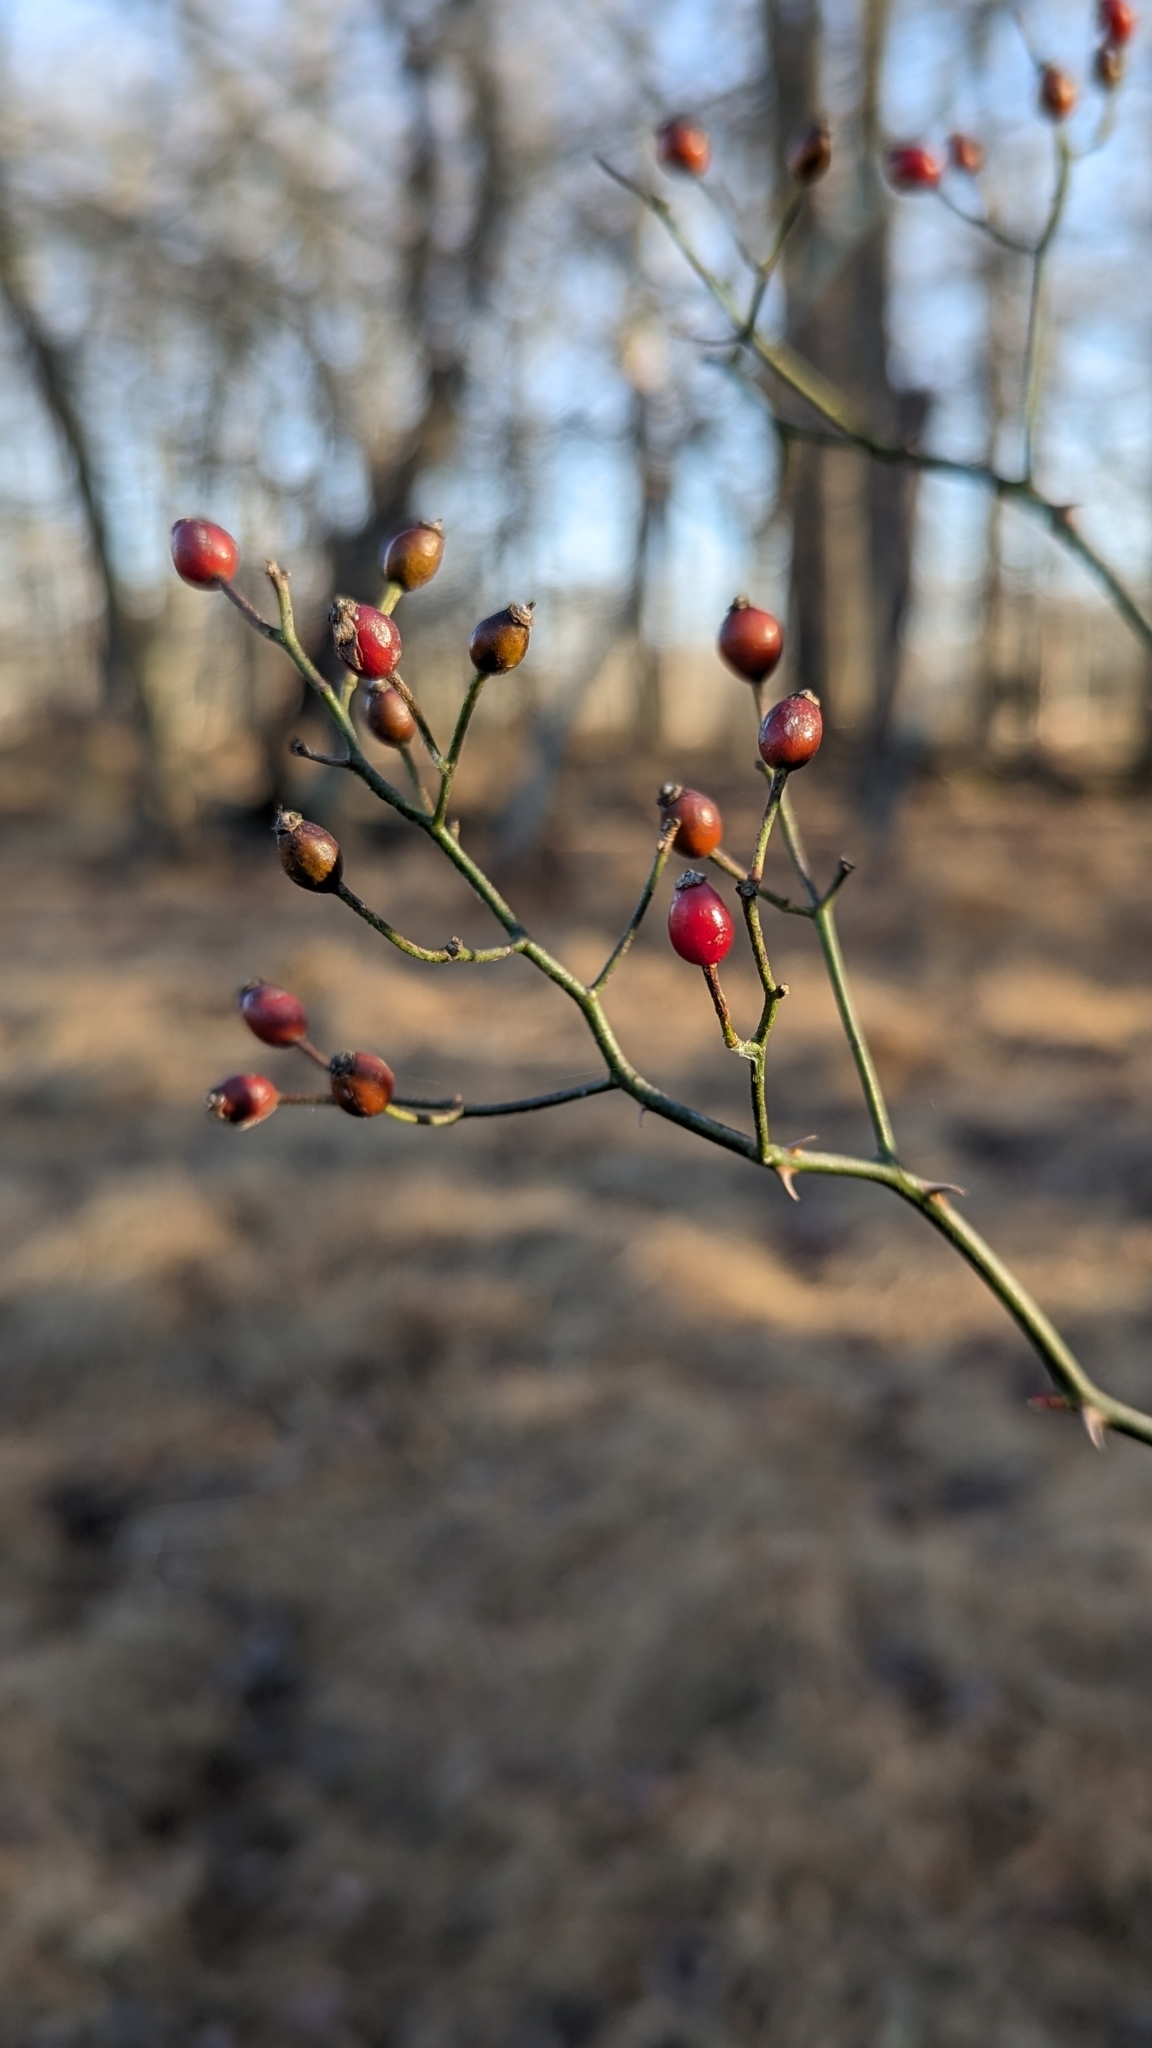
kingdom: Plantae
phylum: Tracheophyta
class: Magnoliopsida
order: Rosales
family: Rosaceae
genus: Rosa
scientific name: Rosa multiflora
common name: Multiflora rose
